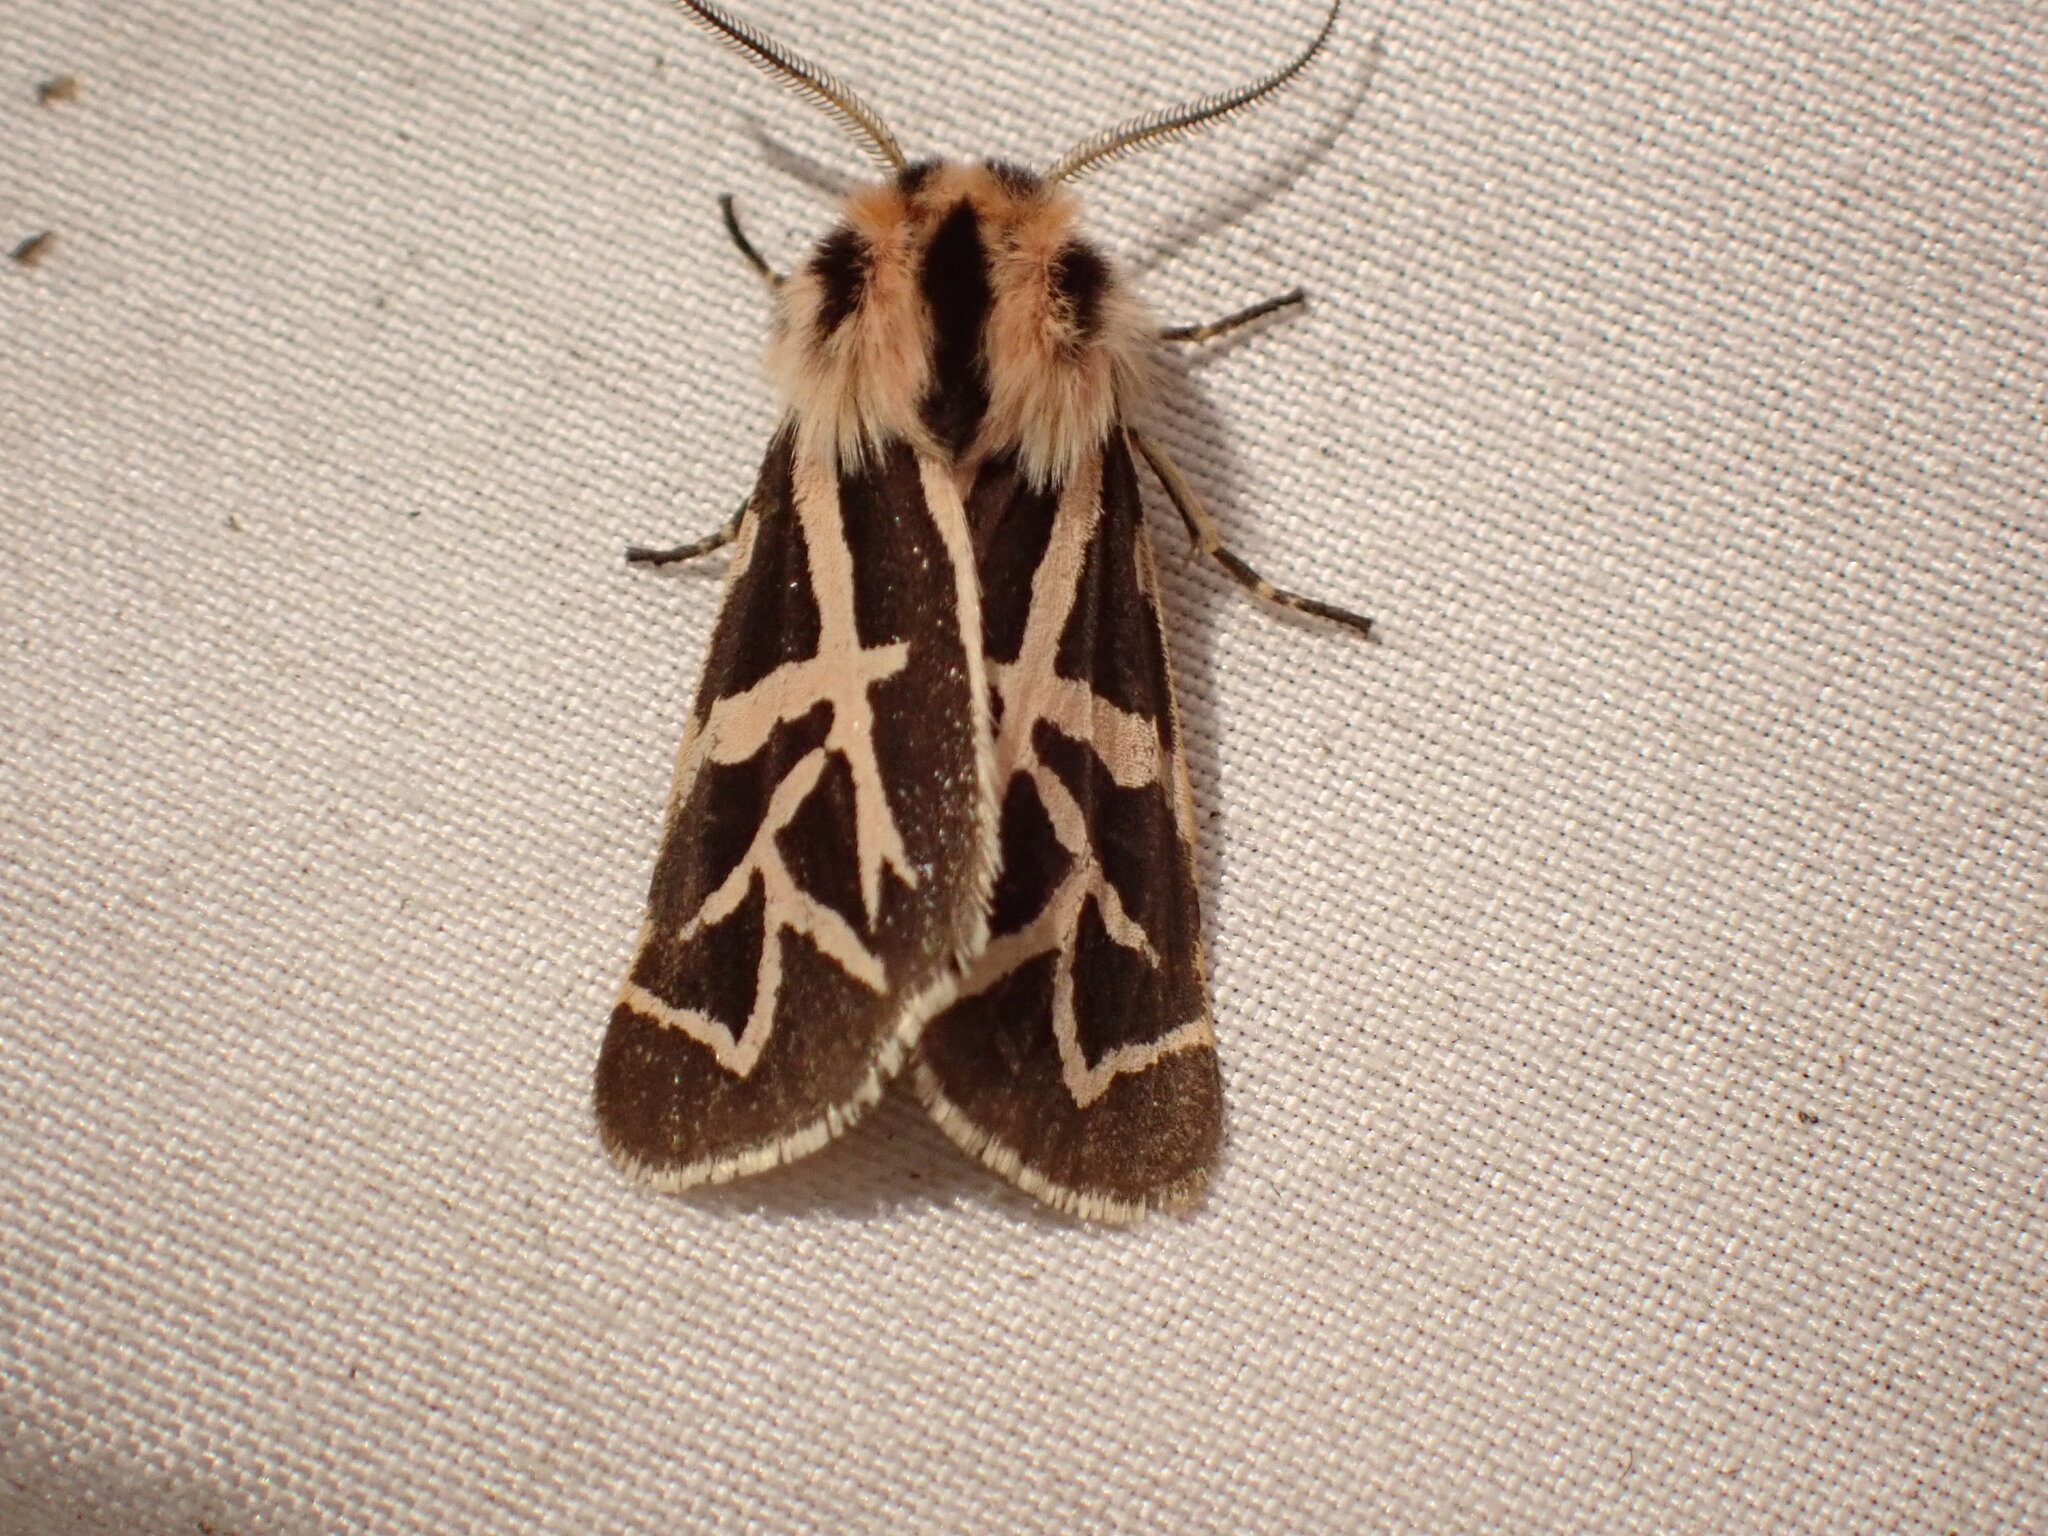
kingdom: Animalia
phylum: Arthropoda
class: Insecta
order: Lepidoptera
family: Erebidae
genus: Apantesis
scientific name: Apantesis
